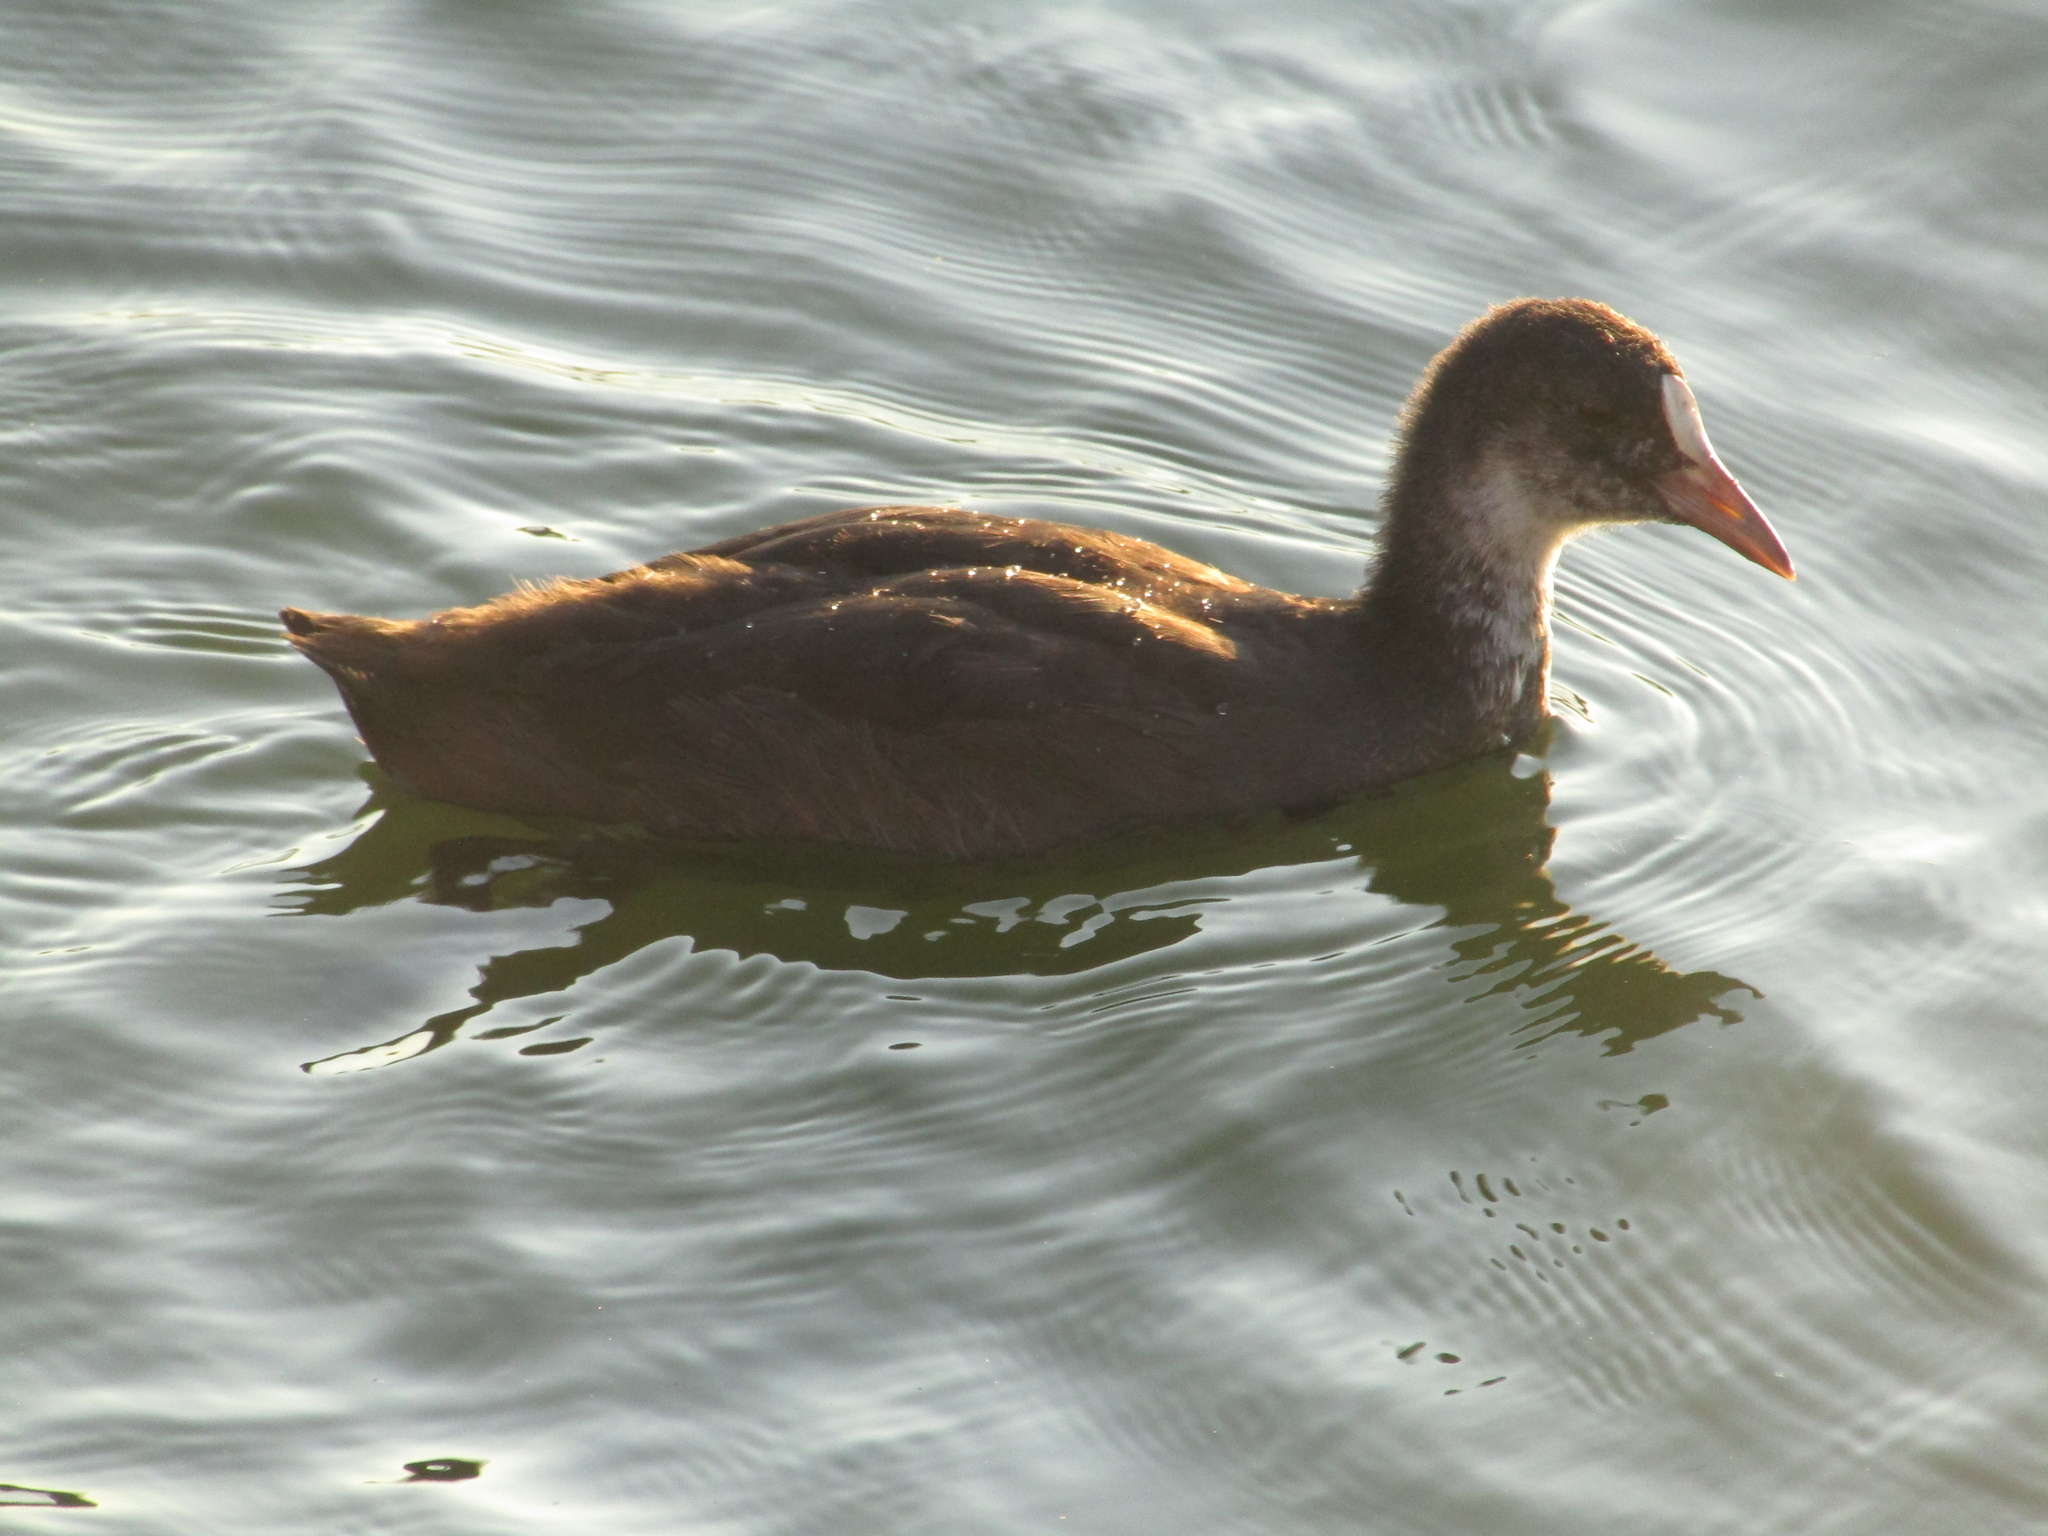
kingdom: Animalia
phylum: Chordata
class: Aves
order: Gruiformes
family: Rallidae
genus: Fulica
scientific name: Fulica atra
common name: Eurasian coot
